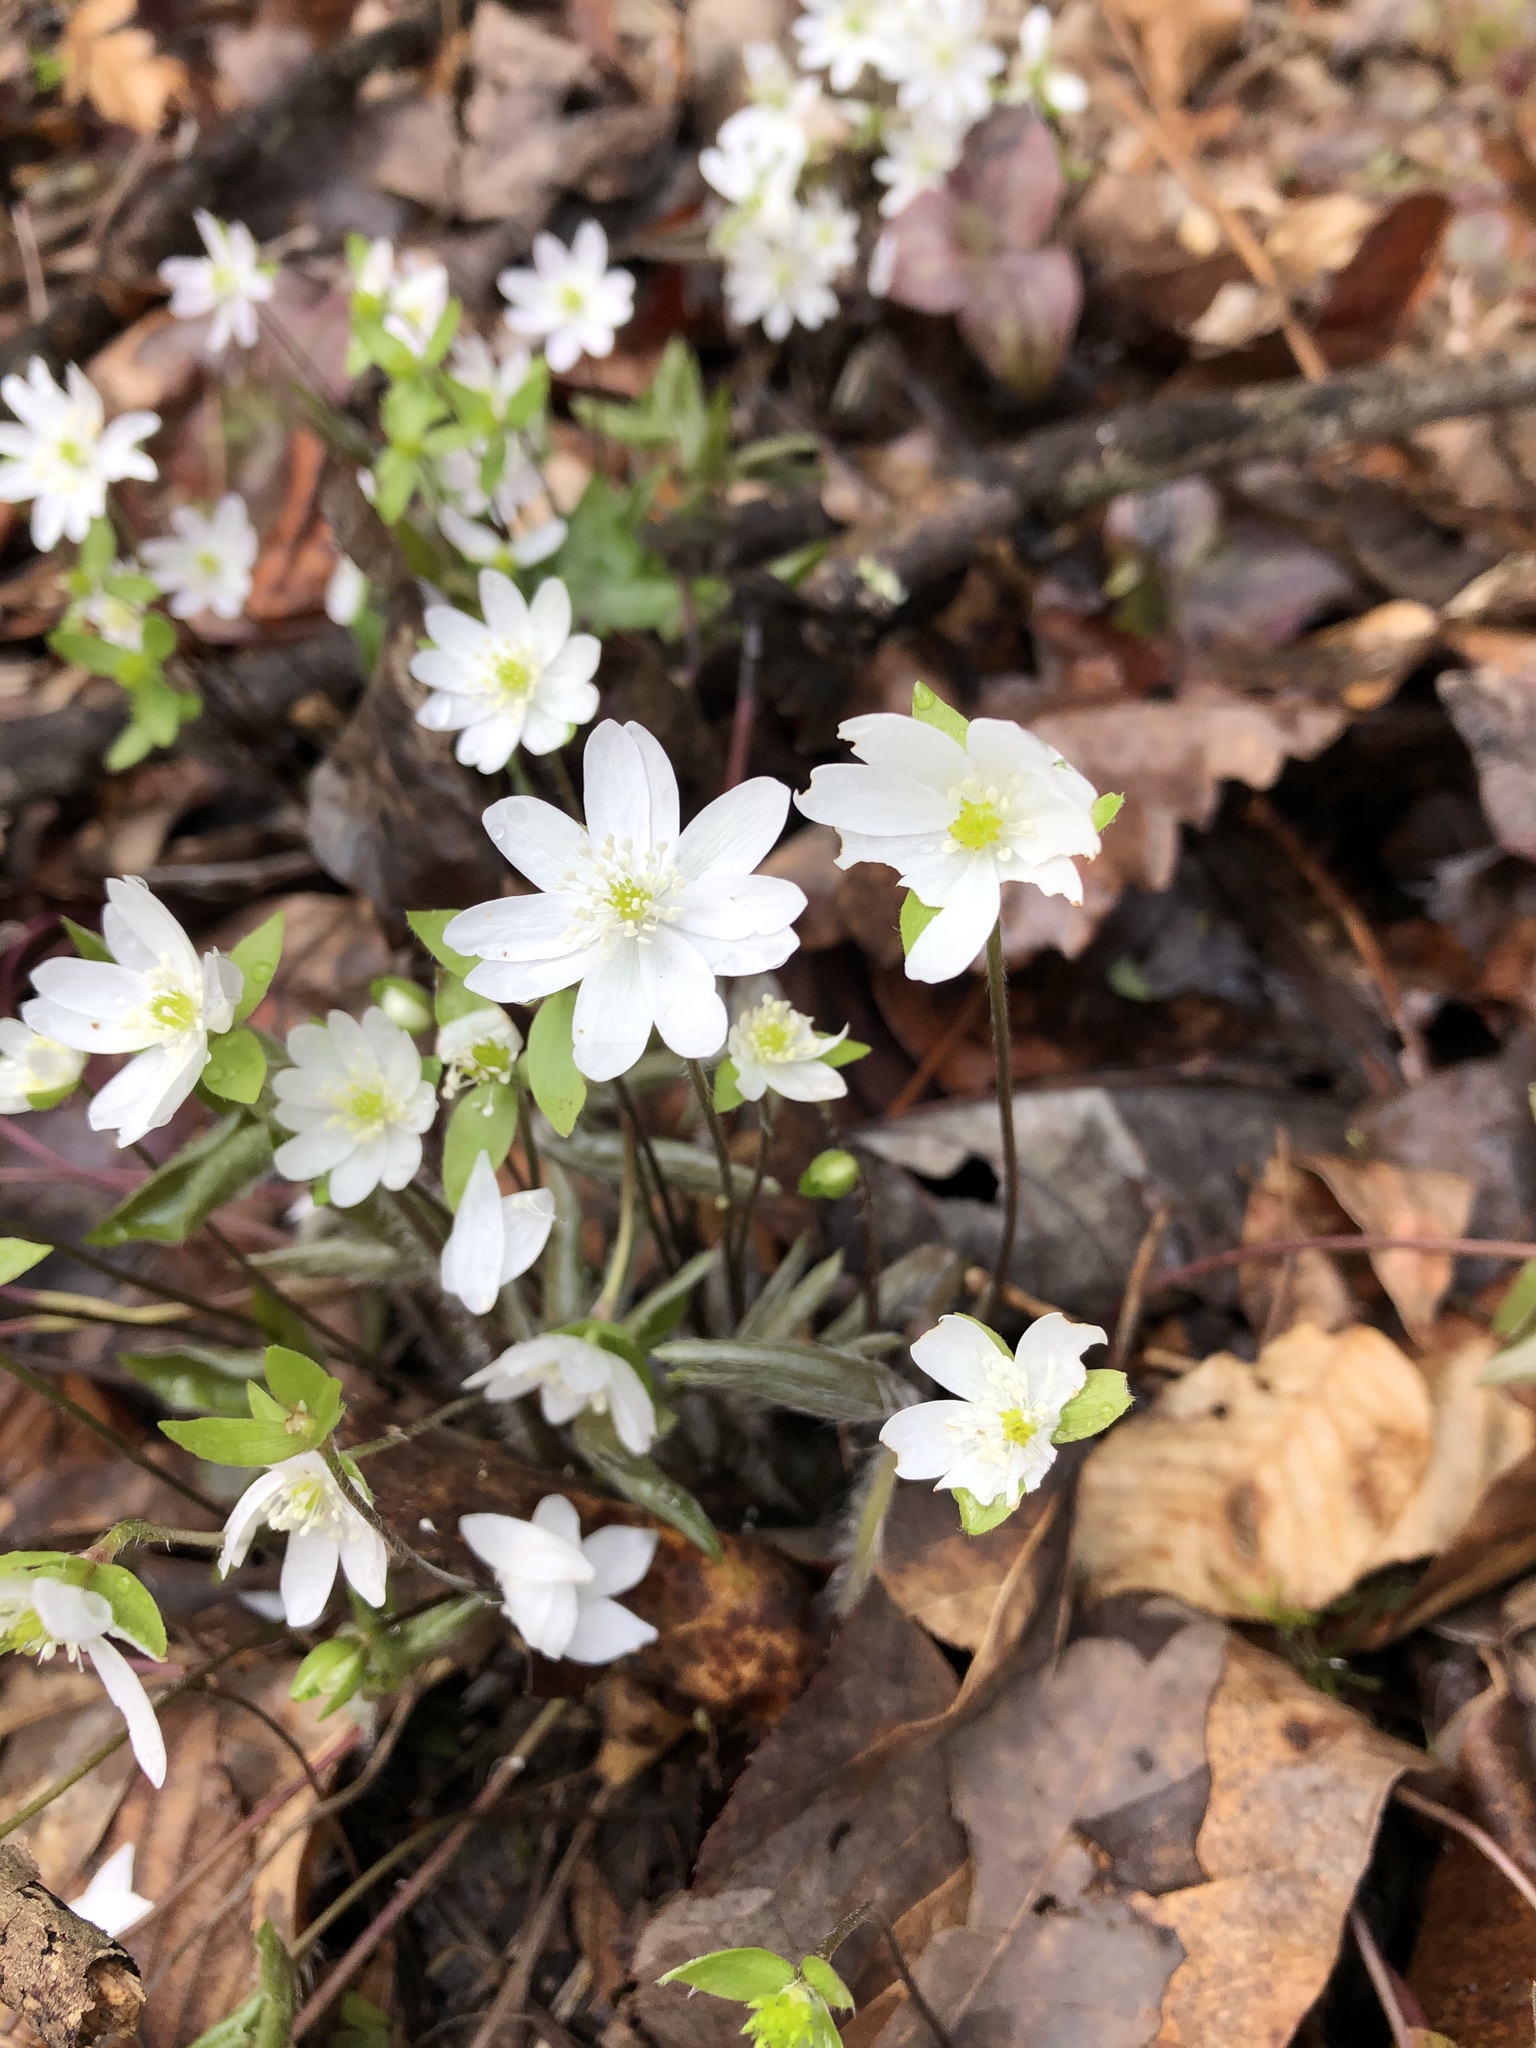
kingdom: Plantae
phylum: Tracheophyta
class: Magnoliopsida
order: Ranunculales
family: Ranunculaceae
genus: Hepatica
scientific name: Hepatica acutiloba
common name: Sharp-lobed hepatica
